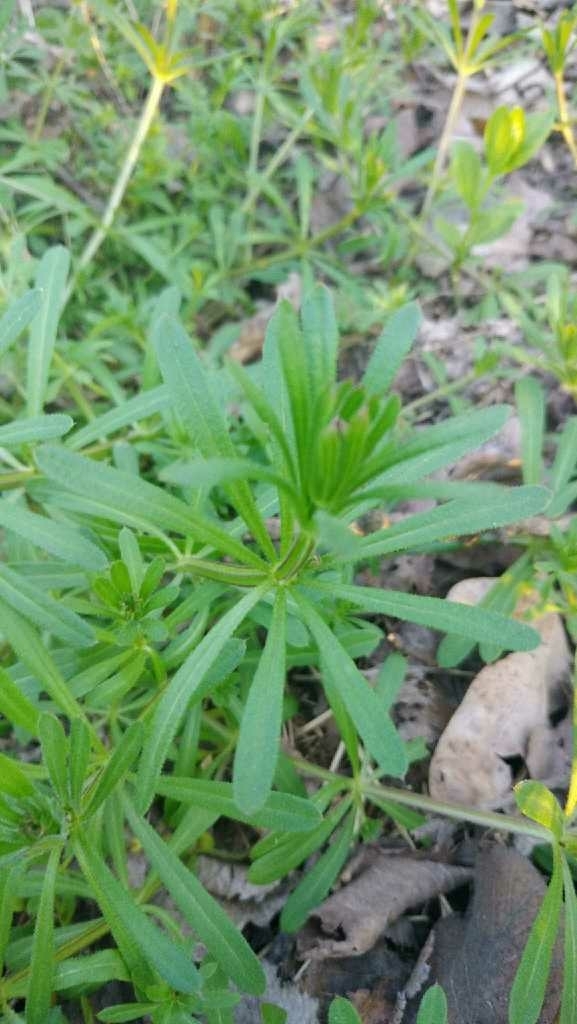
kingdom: Plantae
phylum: Tracheophyta
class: Magnoliopsida
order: Gentianales
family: Rubiaceae
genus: Galium
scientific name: Galium aparine
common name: Cleavers
